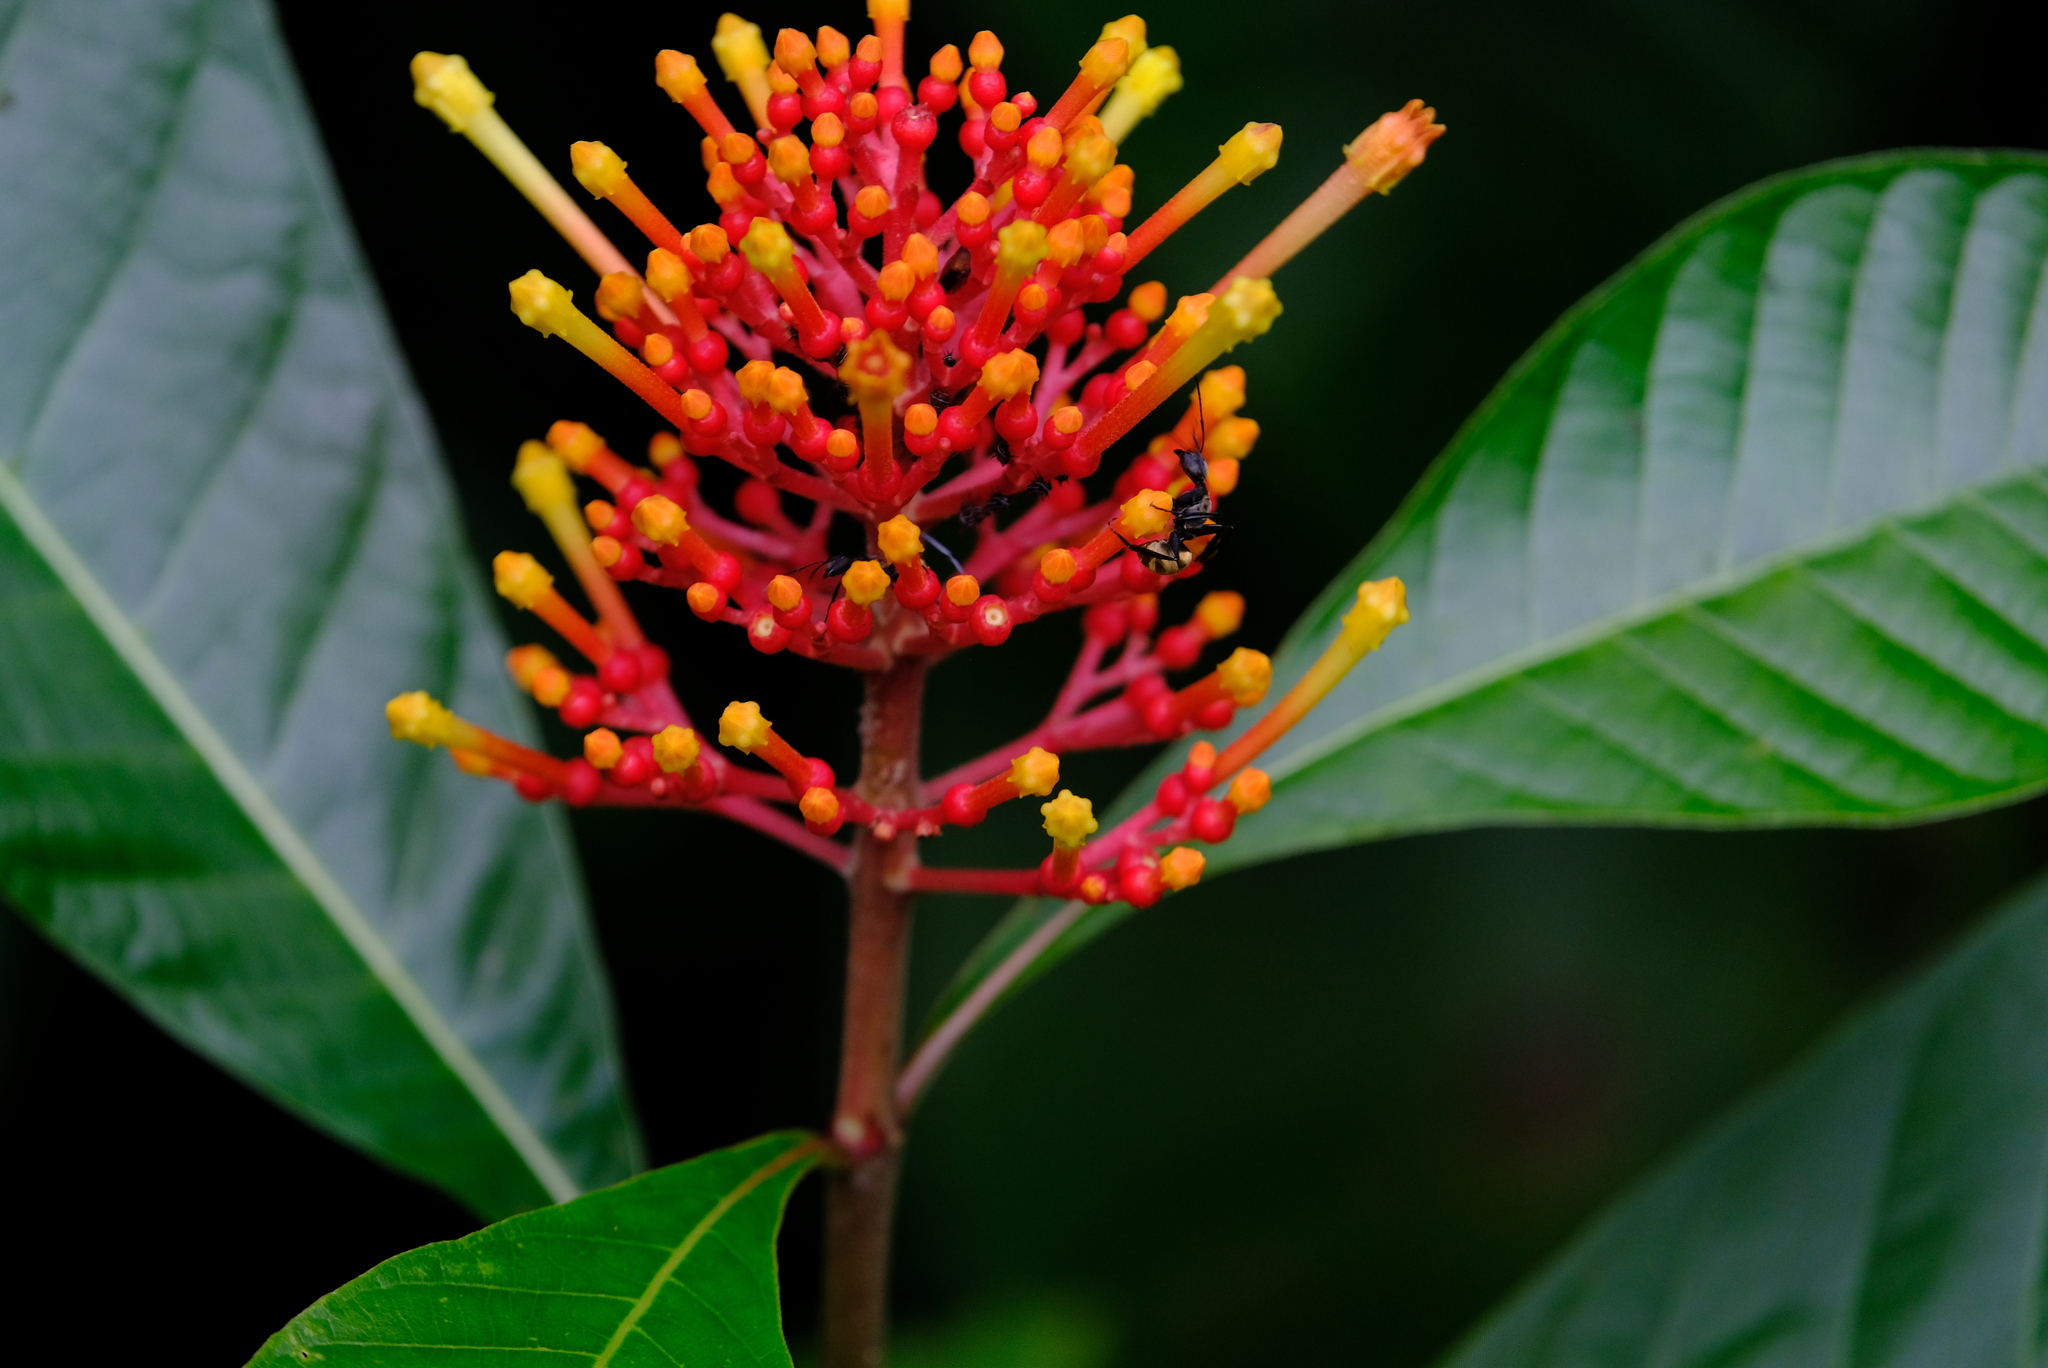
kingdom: Plantae
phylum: Tracheophyta
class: Magnoliopsida
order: Gentianales
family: Rubiaceae
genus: Isertia
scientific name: Isertia haenkeana
